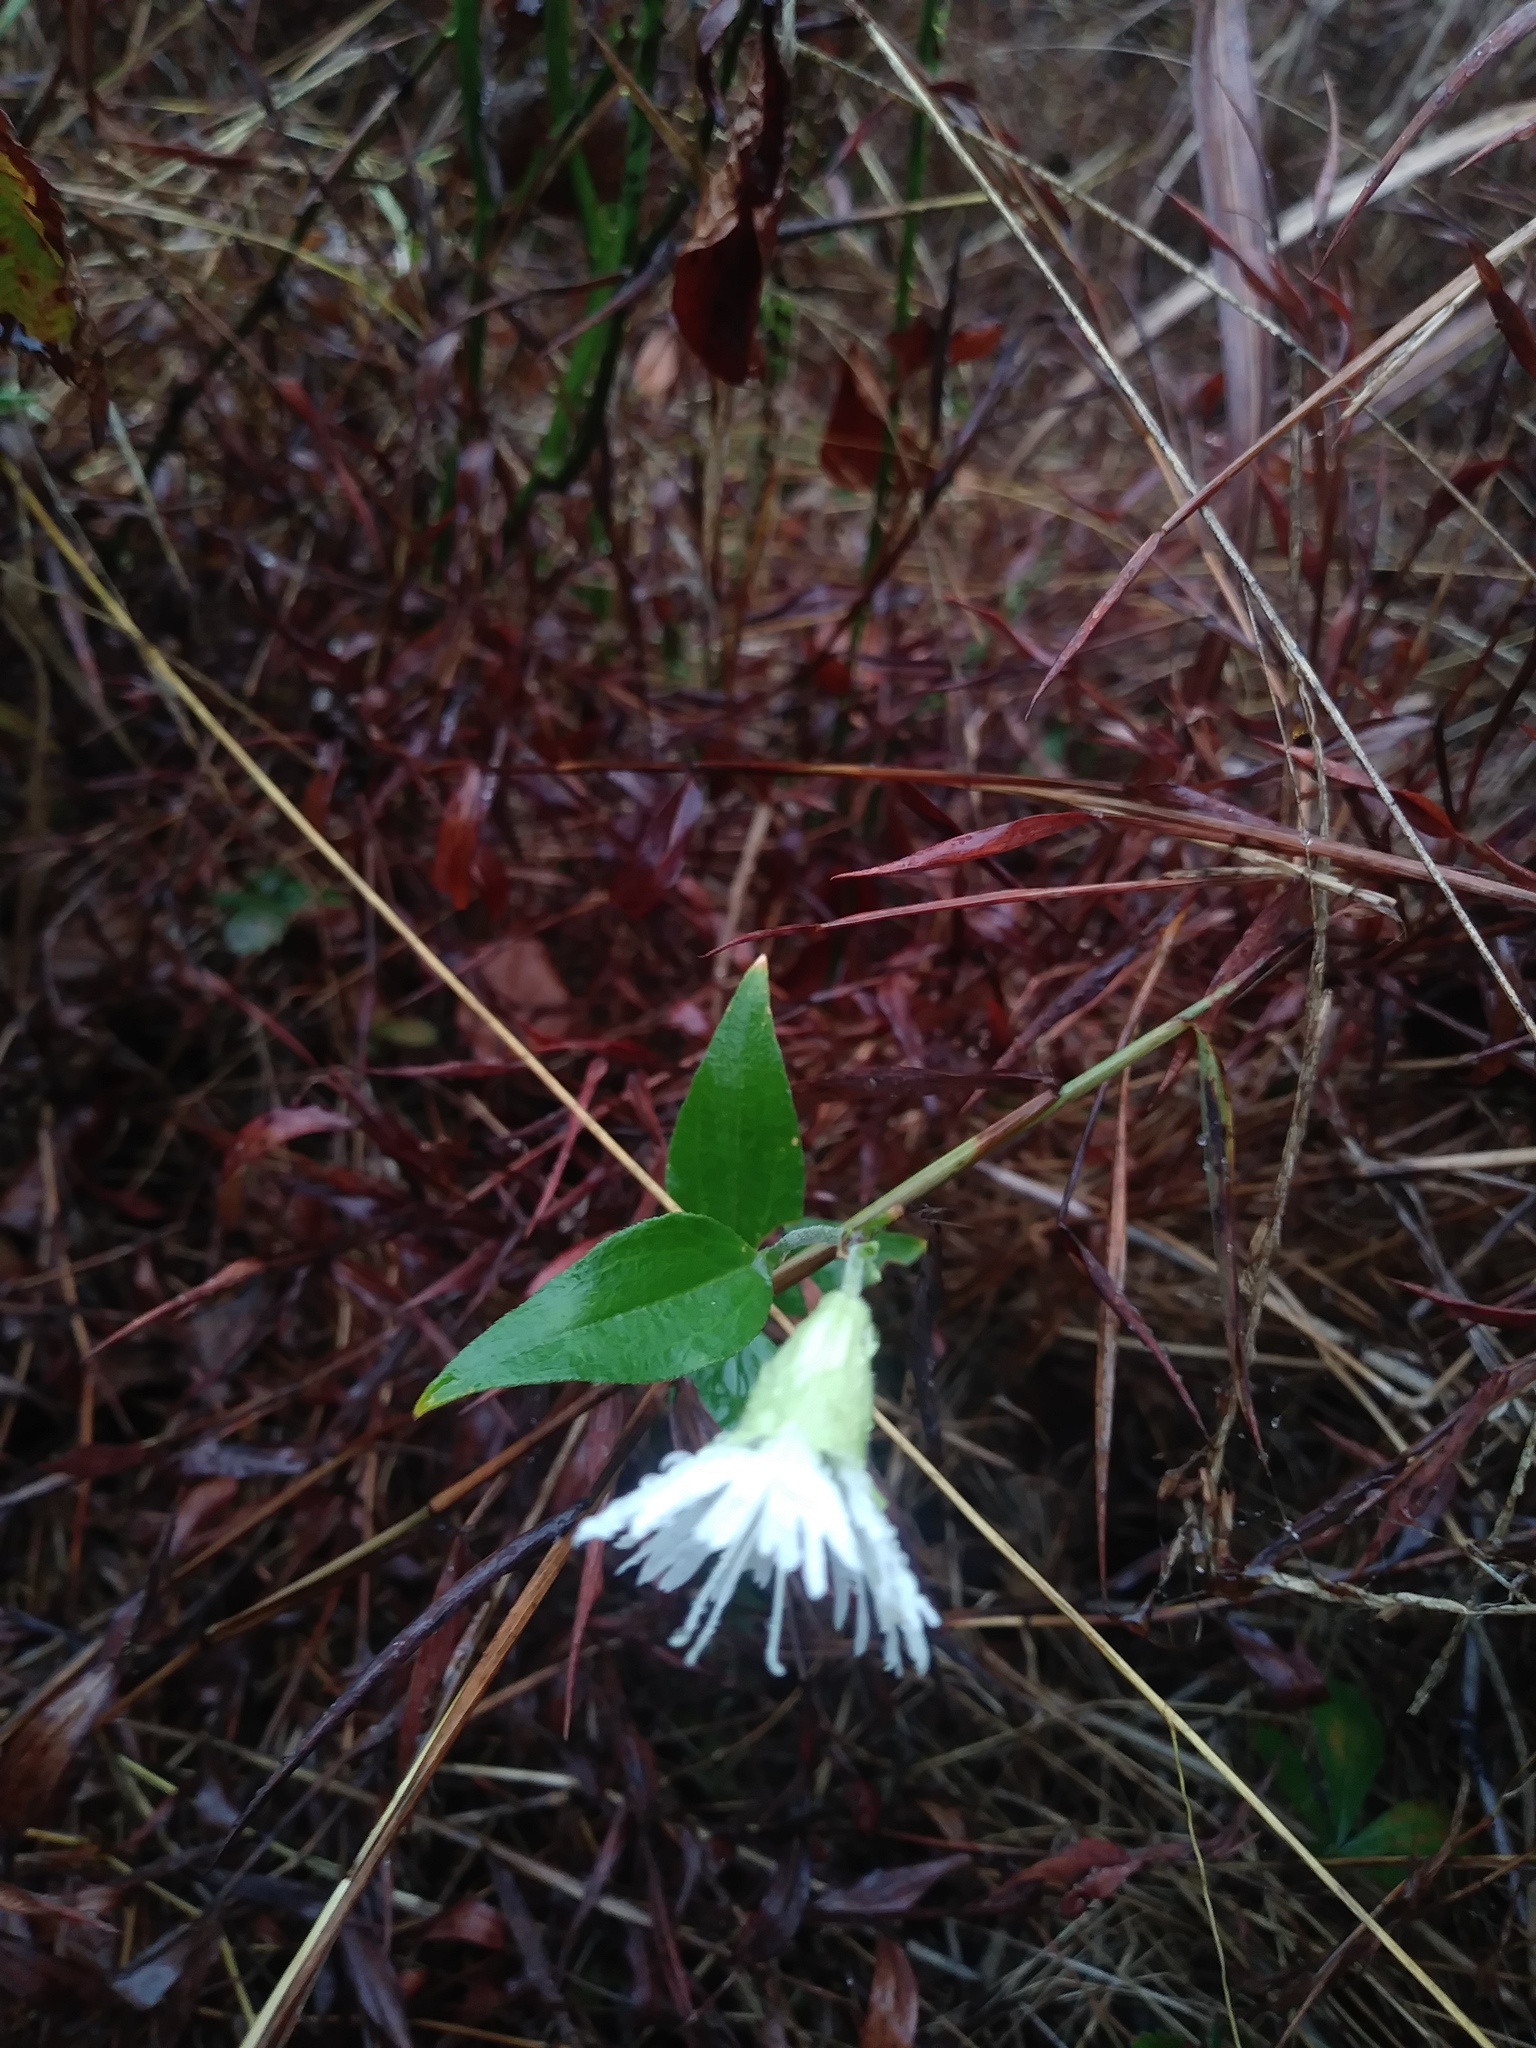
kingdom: Plantae
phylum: Tracheophyta
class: Magnoliopsida
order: Caryophyllales
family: Caryophyllaceae
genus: Silene
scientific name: Silene stellata
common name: Starry campion
